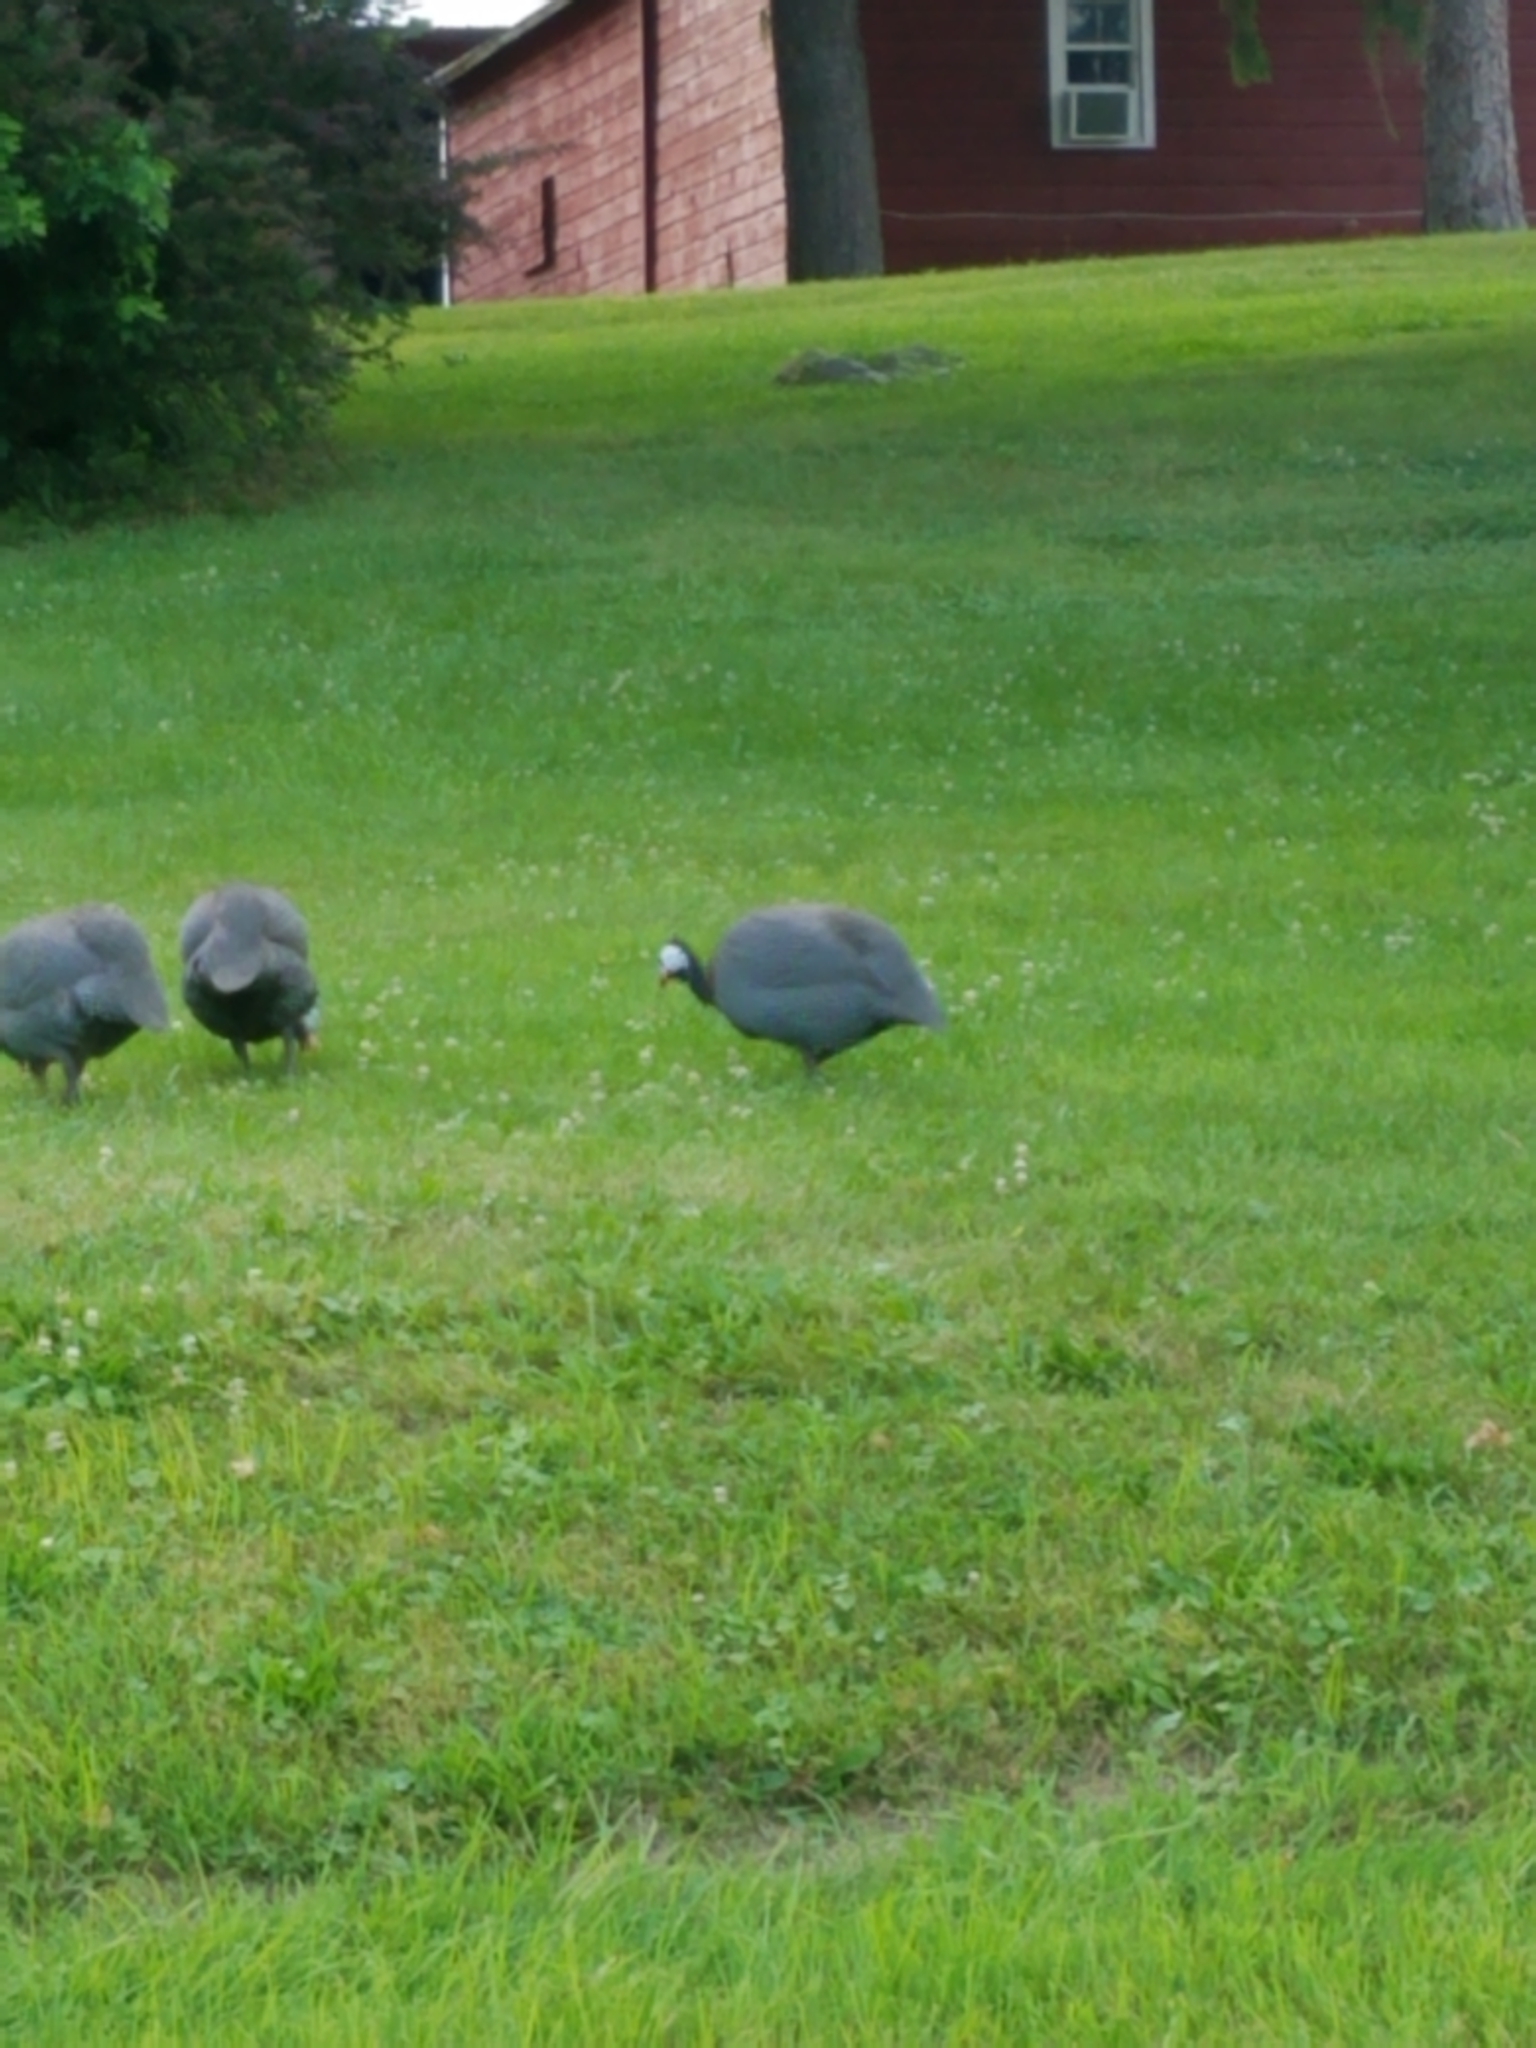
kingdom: Animalia
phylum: Chordata
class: Aves
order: Galliformes
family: Numididae
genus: Numida
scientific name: Numida meleagris
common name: Helmeted guineafowl
